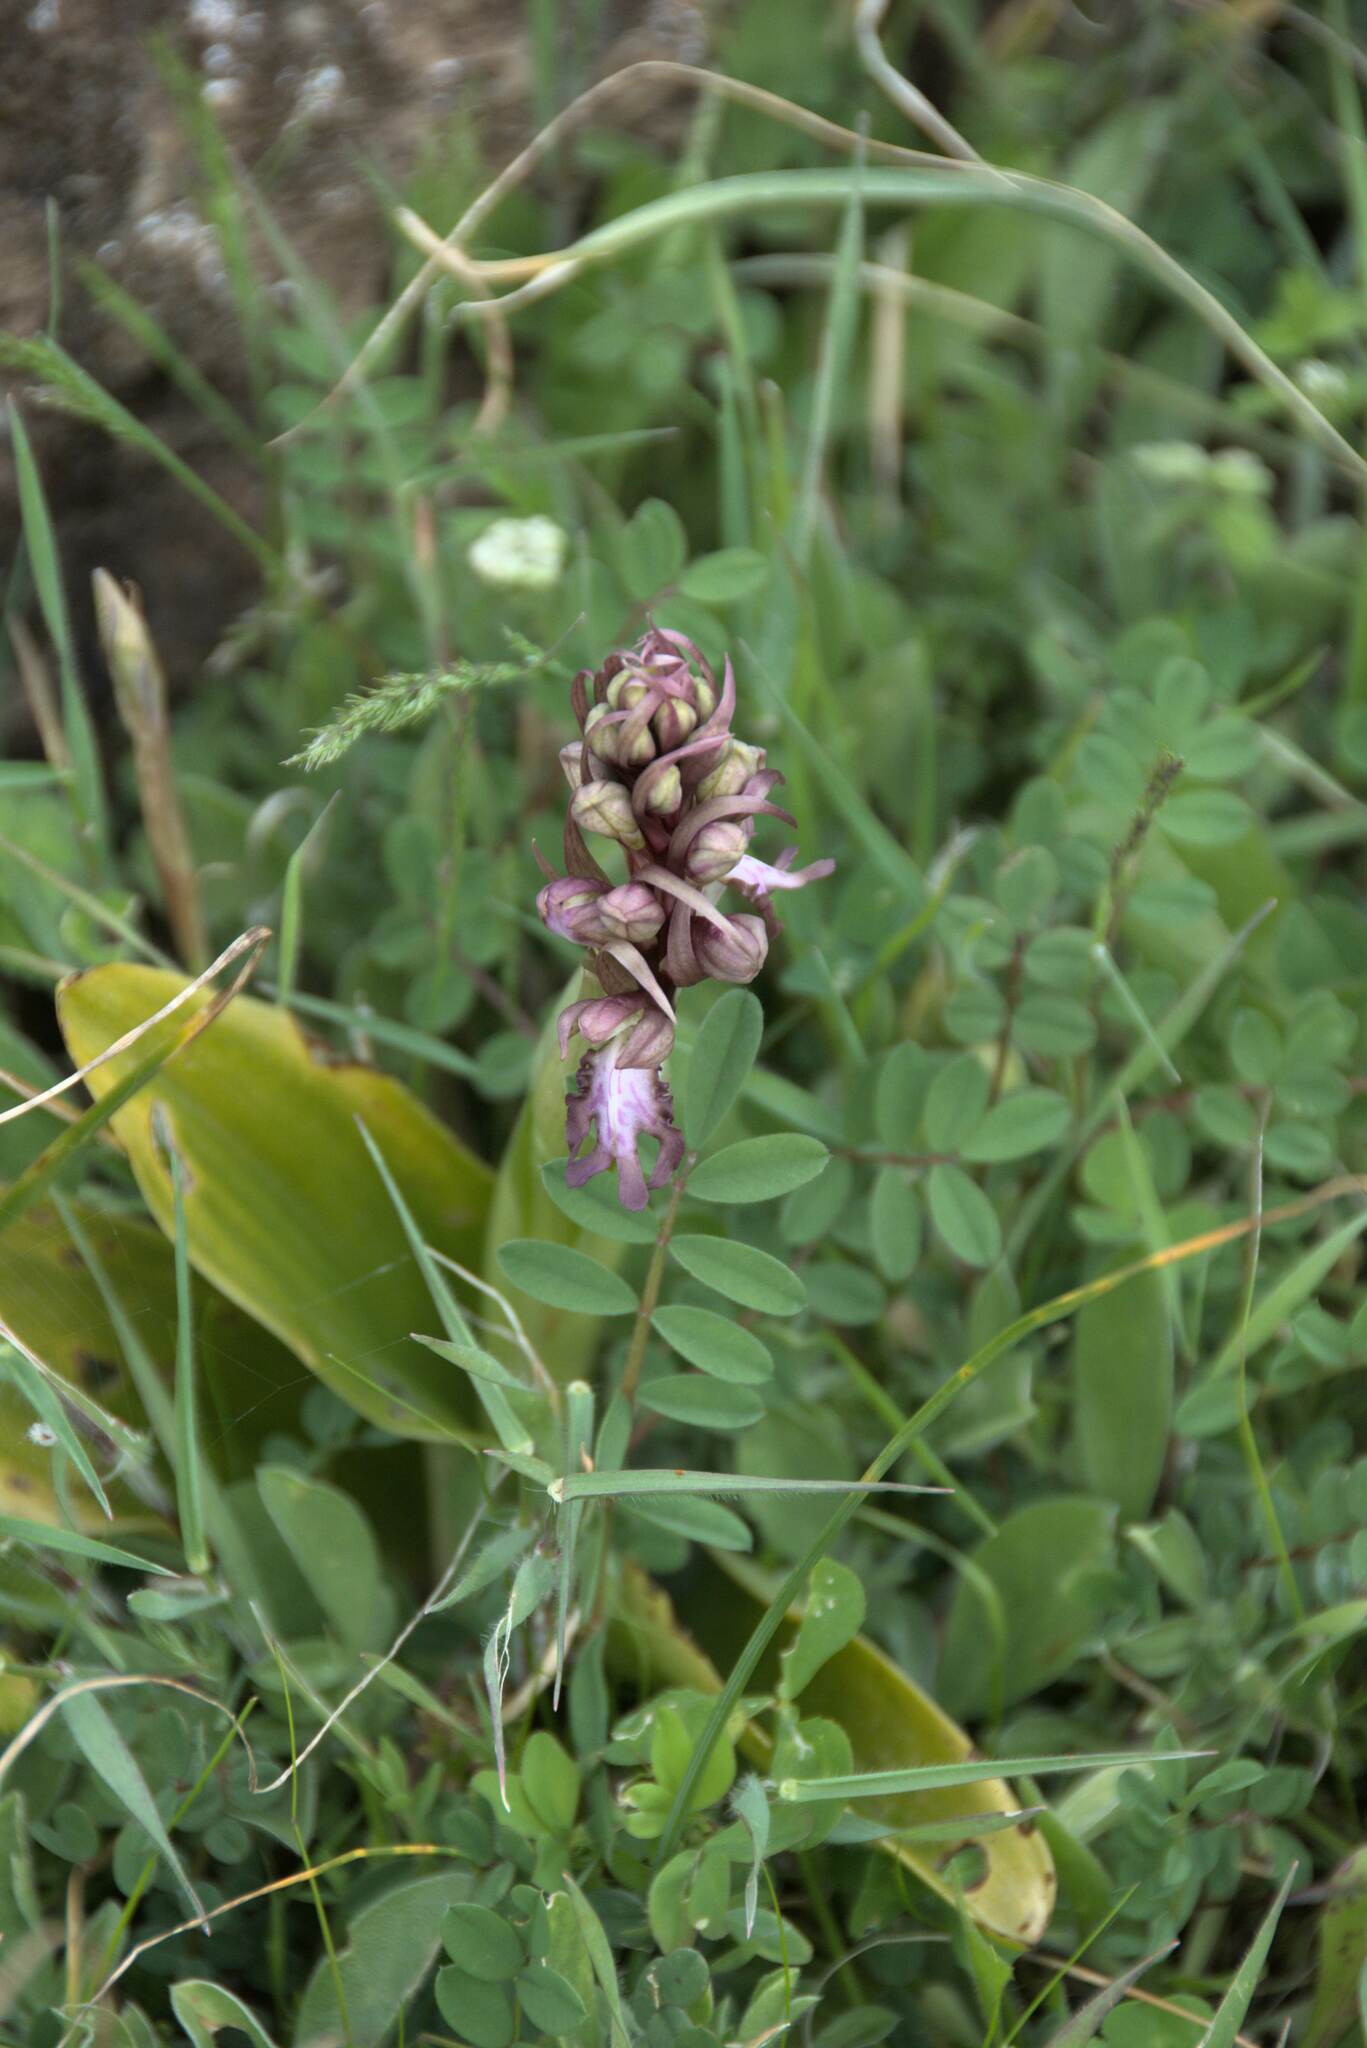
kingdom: Plantae
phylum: Tracheophyta
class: Liliopsida
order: Asparagales
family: Orchidaceae
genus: Himantoglossum
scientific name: Himantoglossum robertianum
